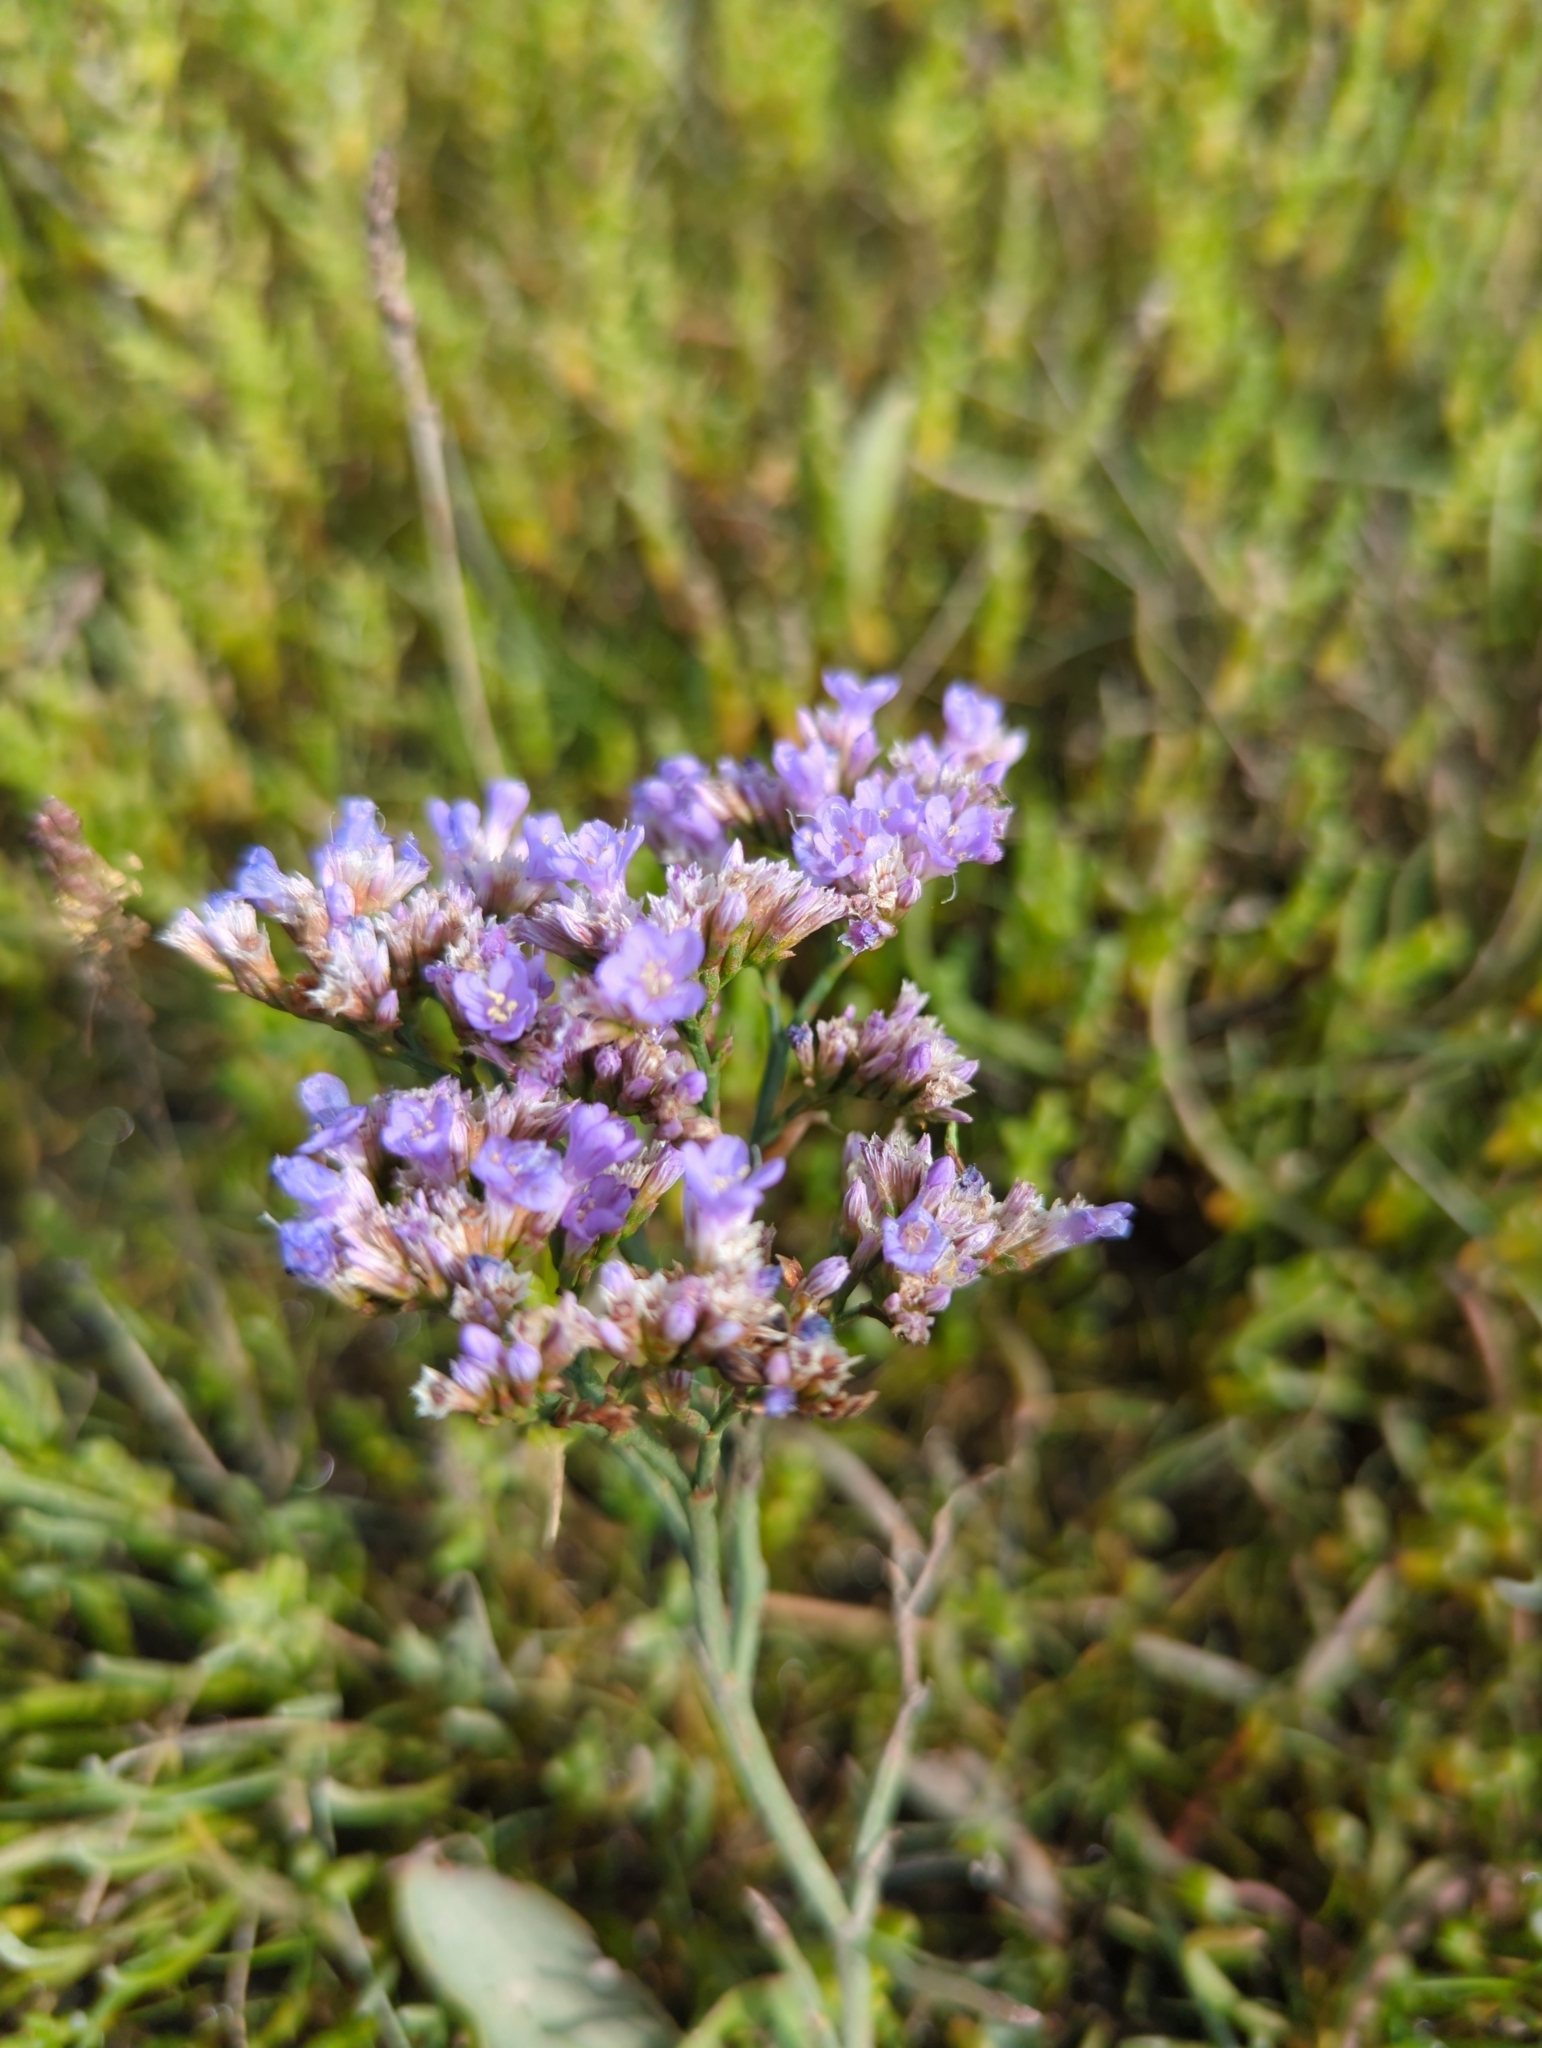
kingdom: Plantae
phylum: Tracheophyta
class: Magnoliopsida
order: Caryophyllales
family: Plumbaginaceae
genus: Limonium
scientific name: Limonium vulgare
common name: Common sea-lavender
